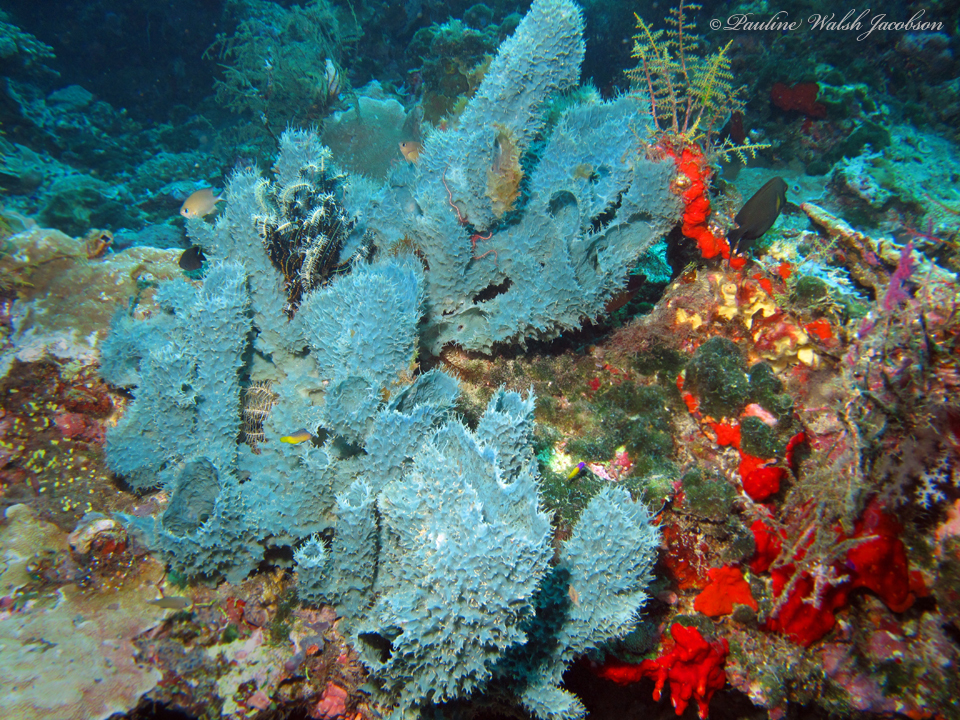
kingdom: Animalia
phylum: Porifera
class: Demospongiae
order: Haplosclerida
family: Callyspongiidae
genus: Callyspongia
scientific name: Callyspongia aerizusa
